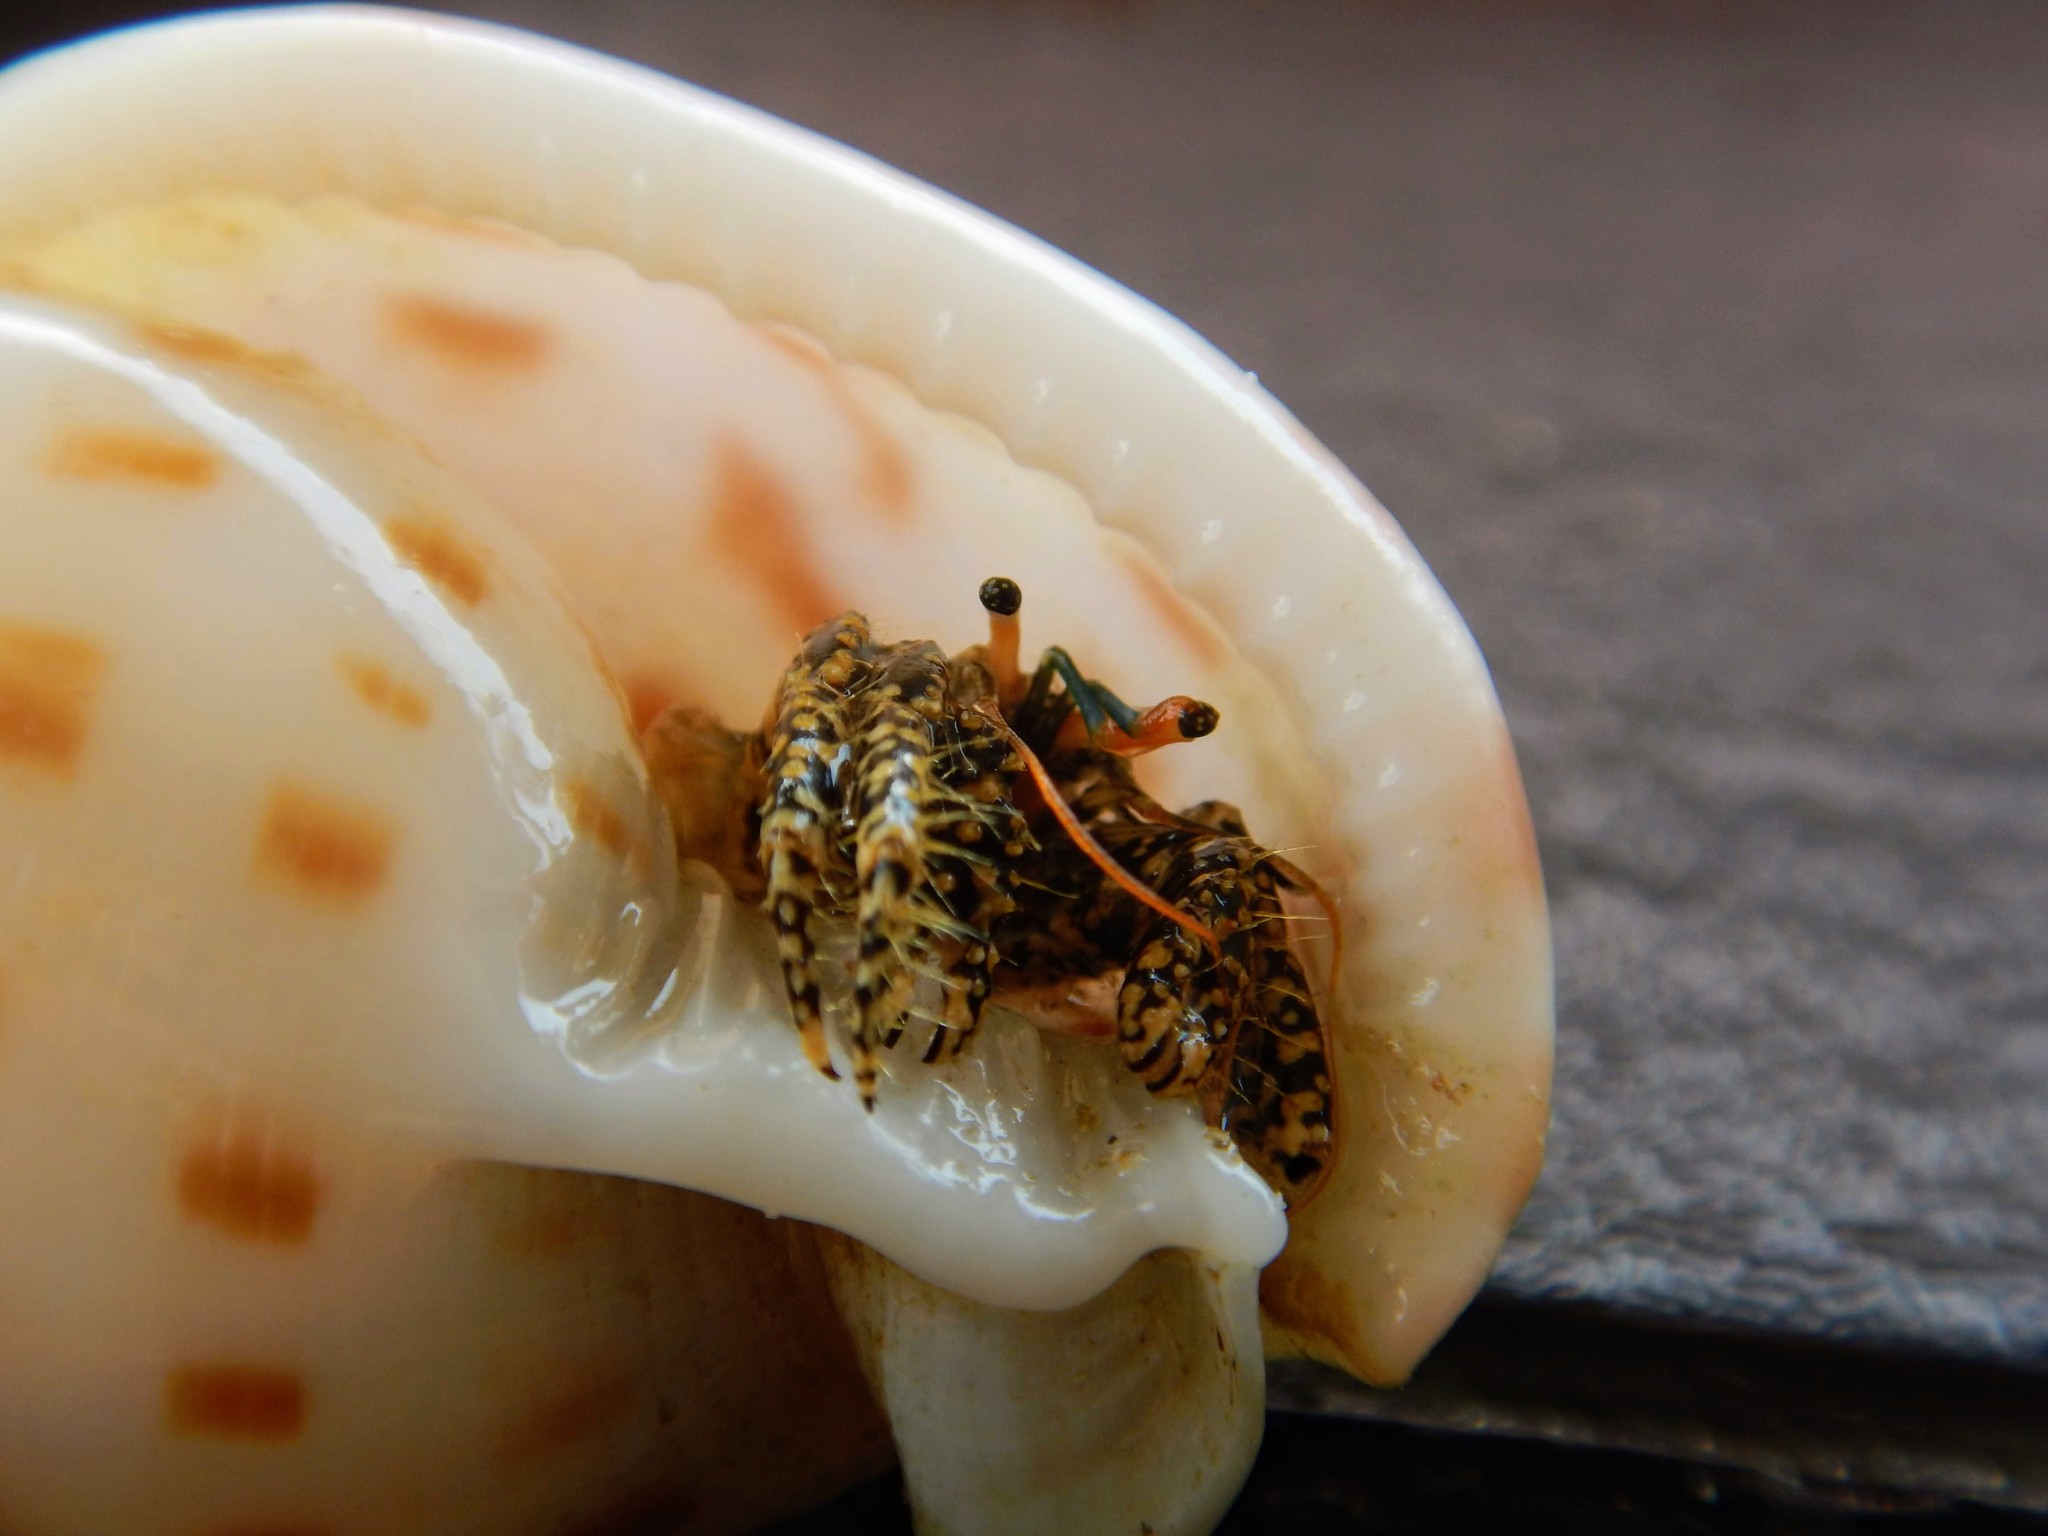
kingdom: Animalia
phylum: Arthropoda
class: Malacostraca
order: Decapoda
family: Diogenidae
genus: Clibanarius
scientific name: Clibanarius cruentatus
